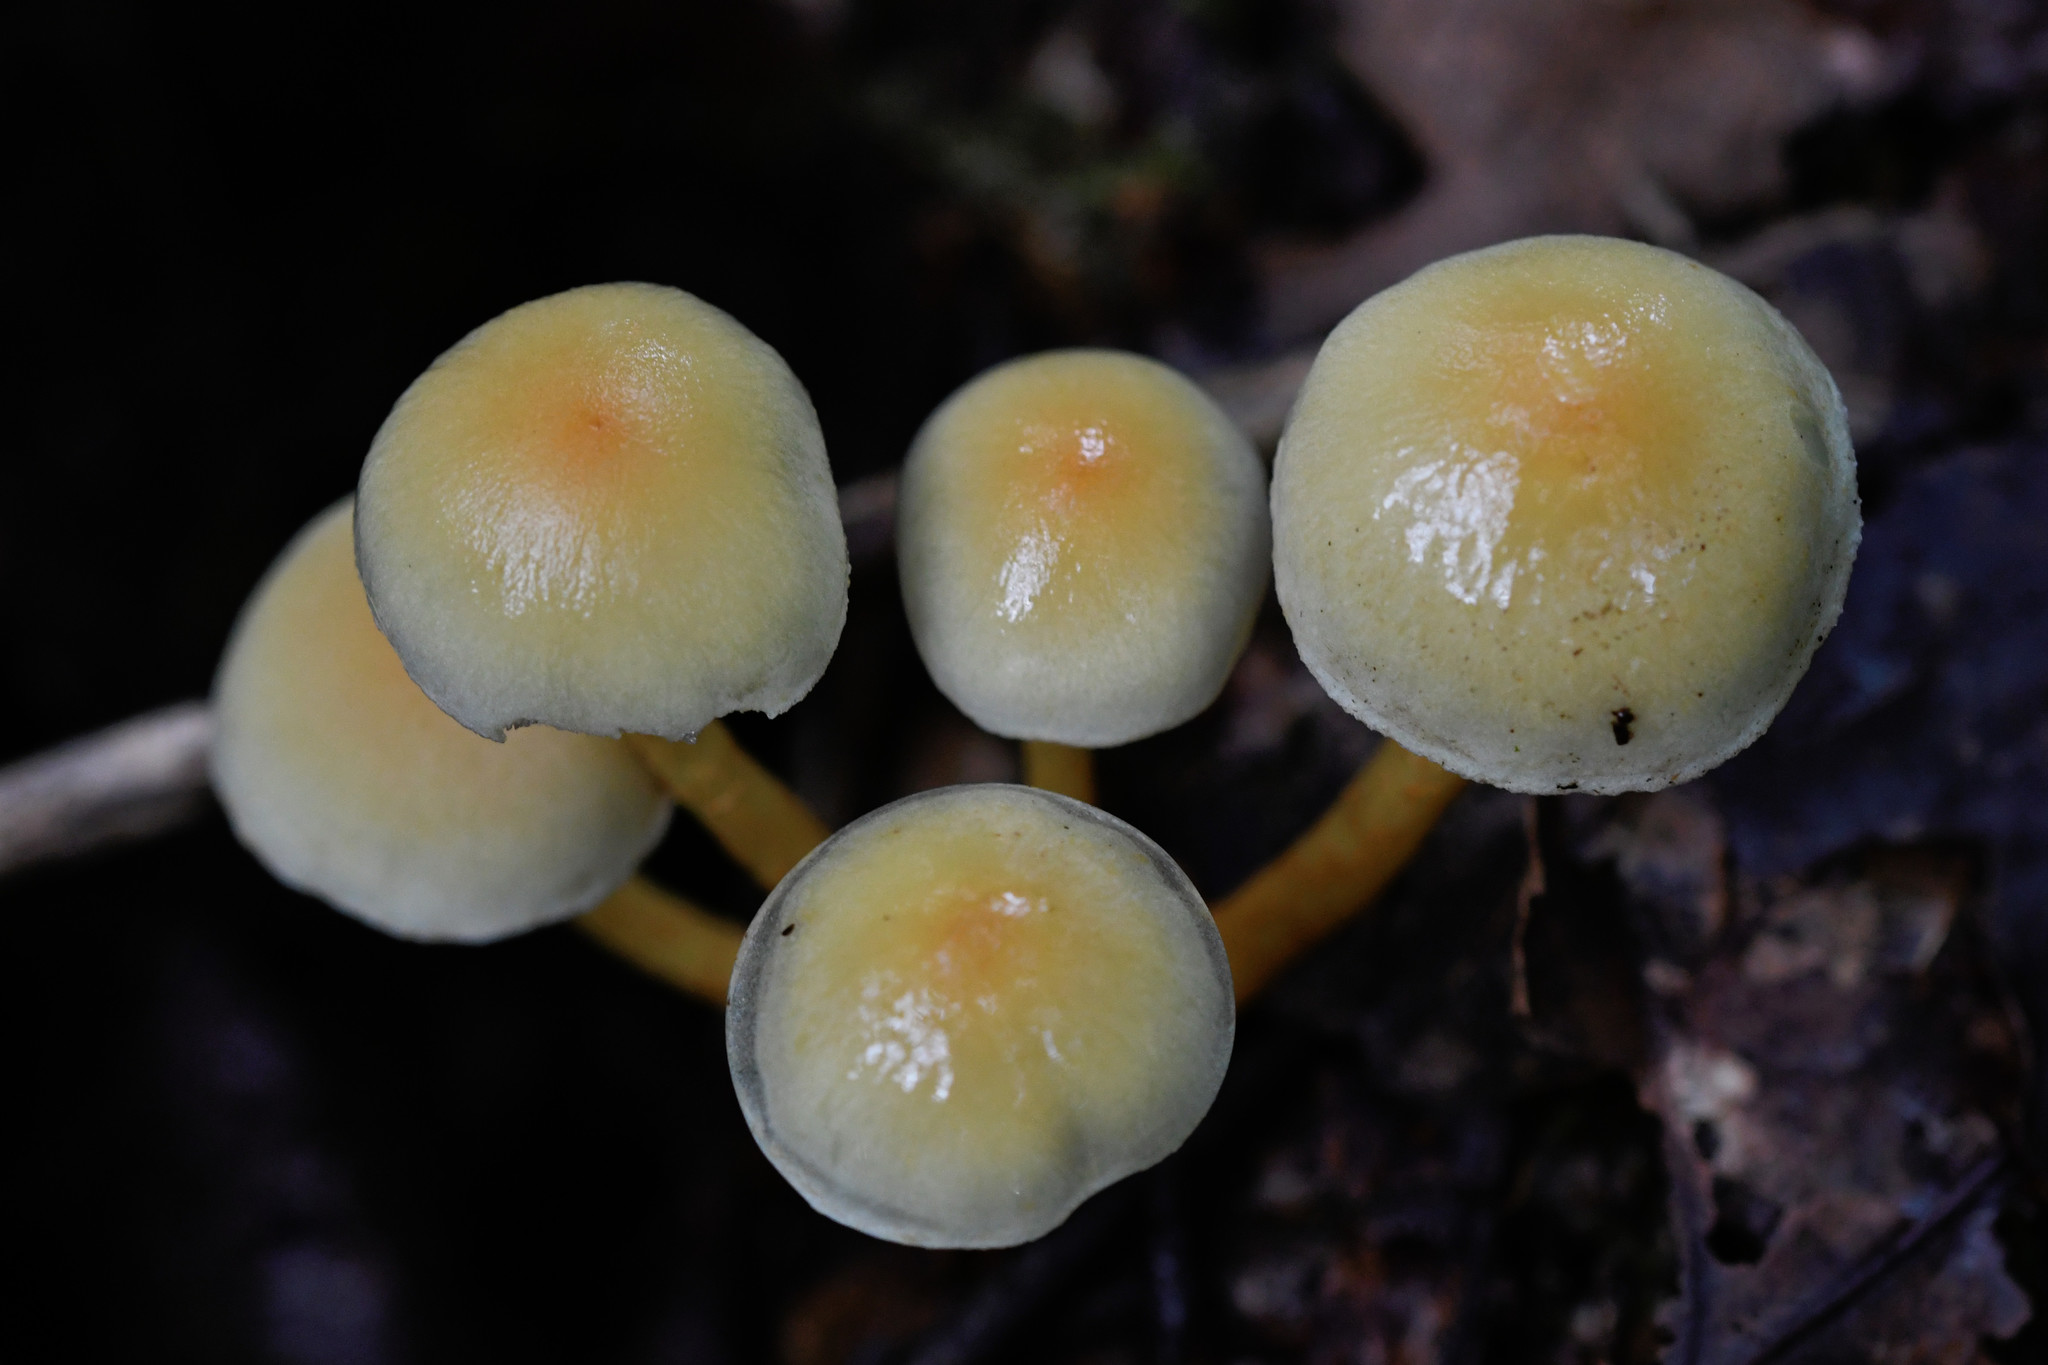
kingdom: Fungi
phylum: Basidiomycota
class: Agaricomycetes
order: Agaricales
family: Strophariaceae
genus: Hypholoma
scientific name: Hypholoma fasciculare
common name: Sulphur tuft
